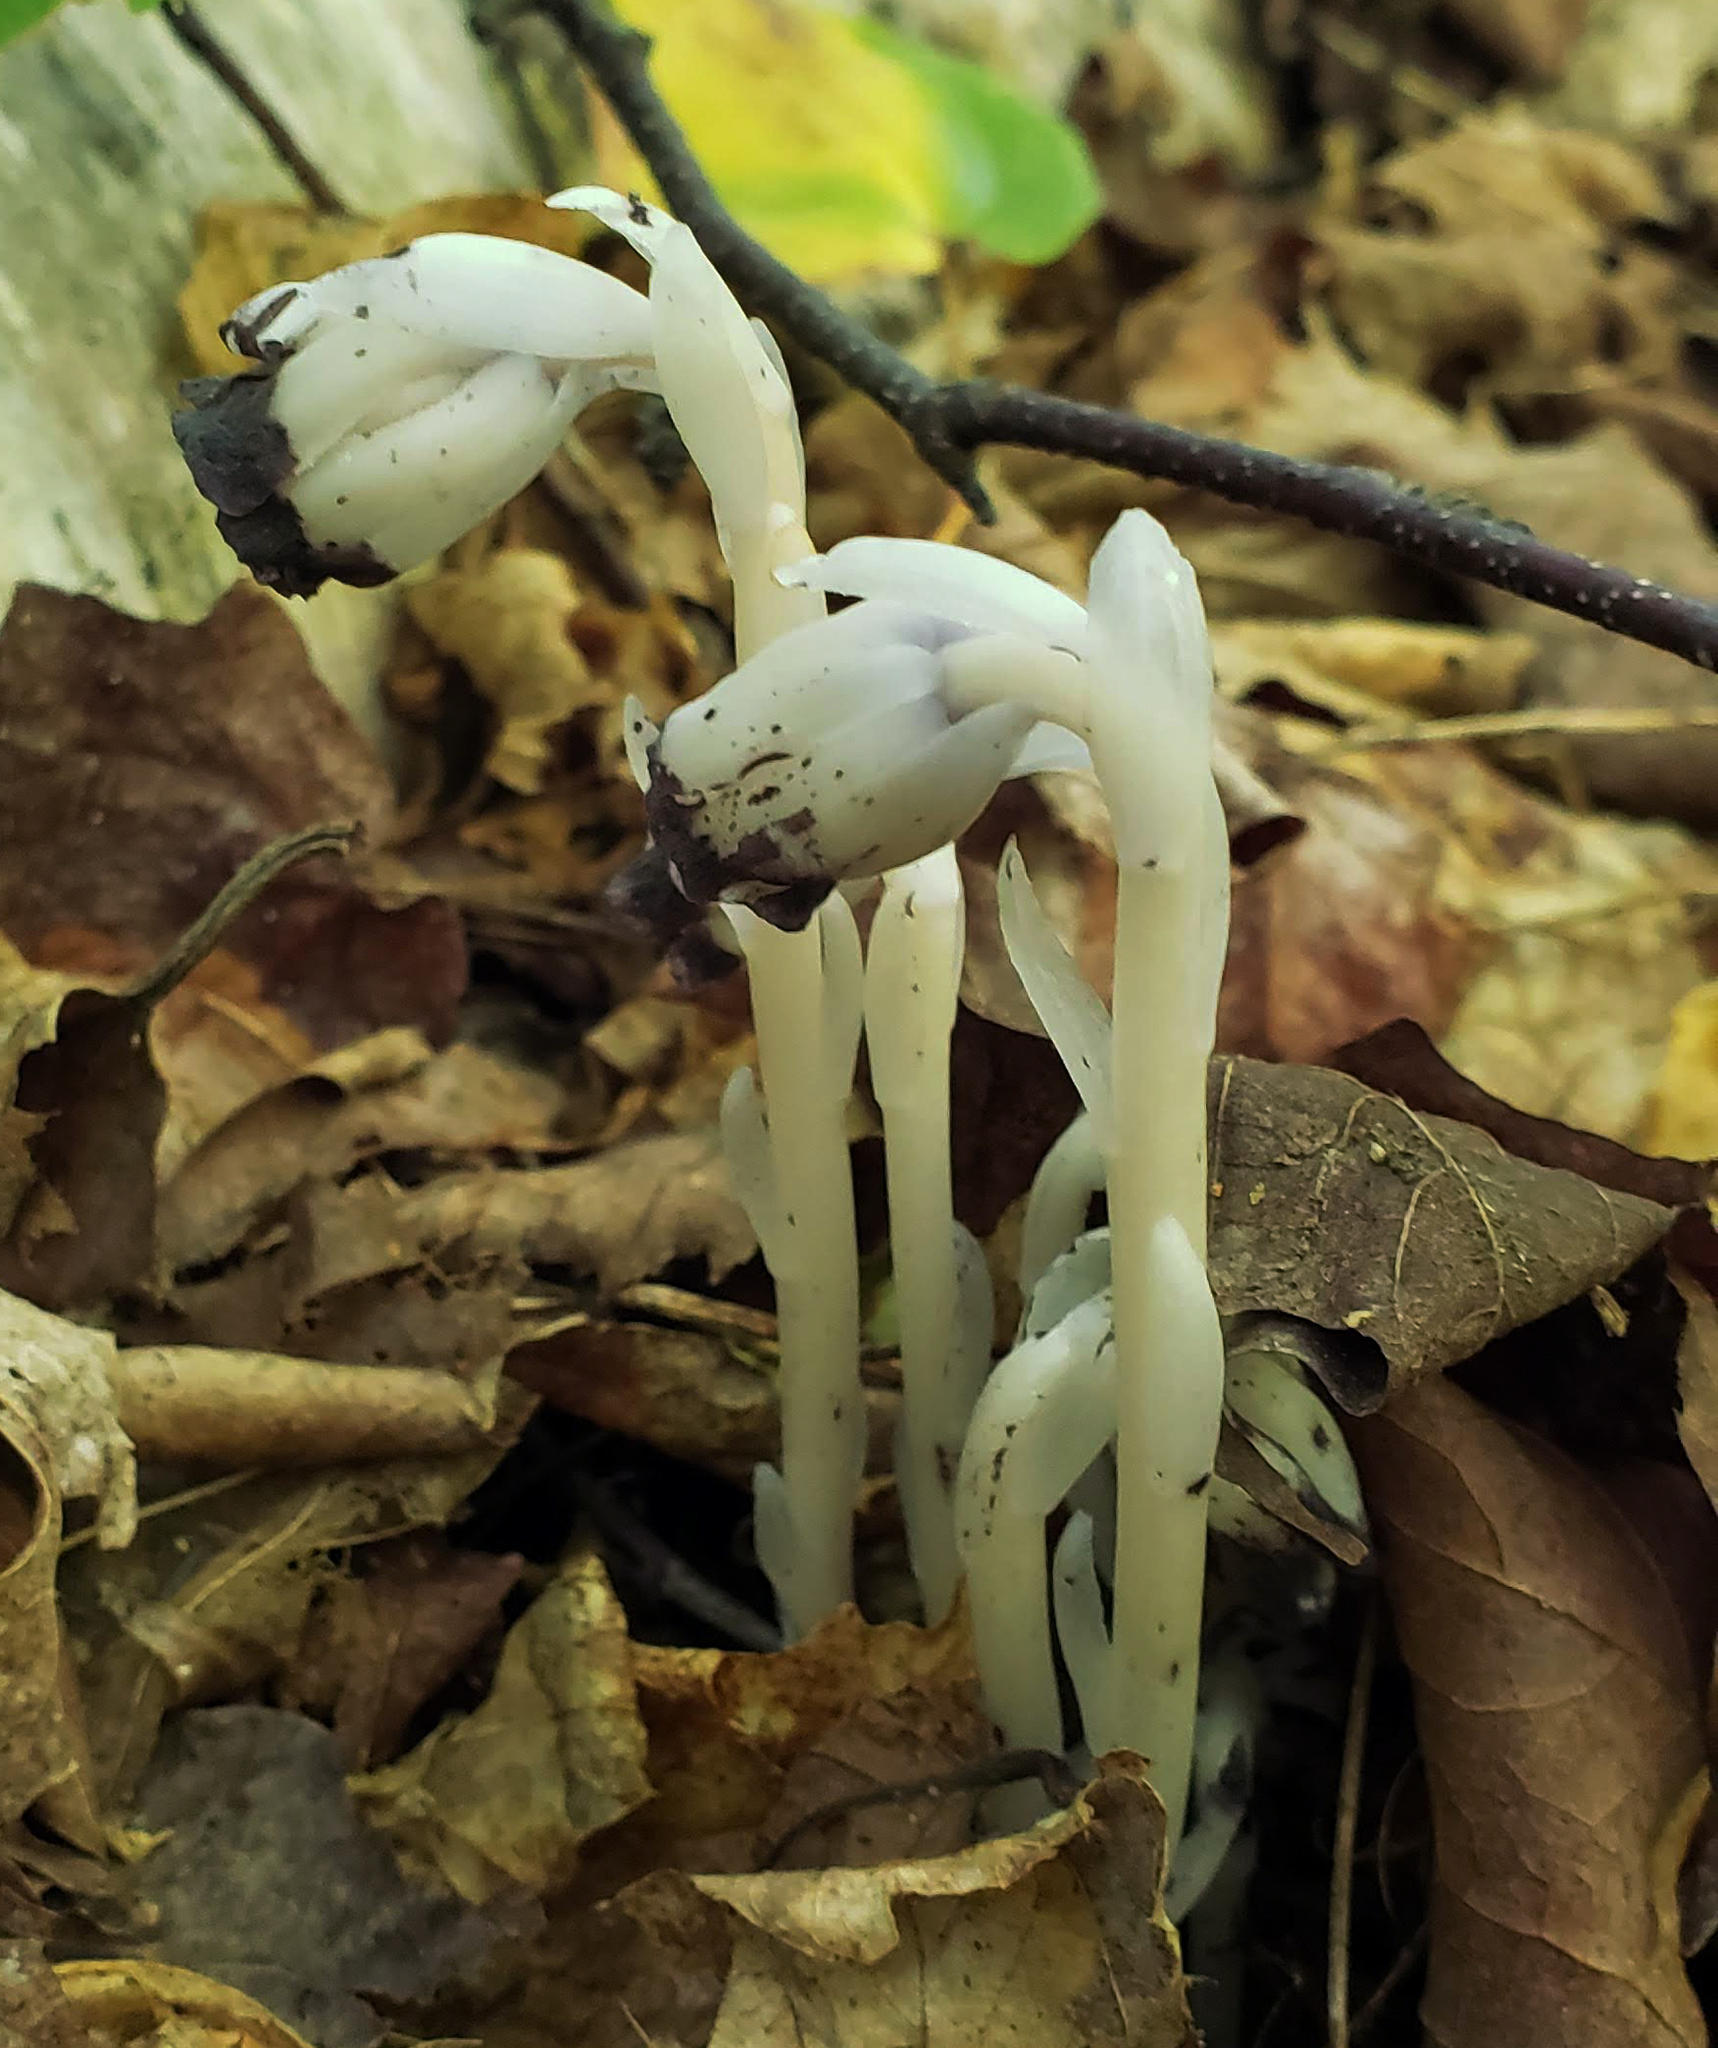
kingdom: Plantae
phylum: Tracheophyta
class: Magnoliopsida
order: Ericales
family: Ericaceae
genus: Monotropa
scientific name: Monotropa uniflora
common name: Convulsion root
